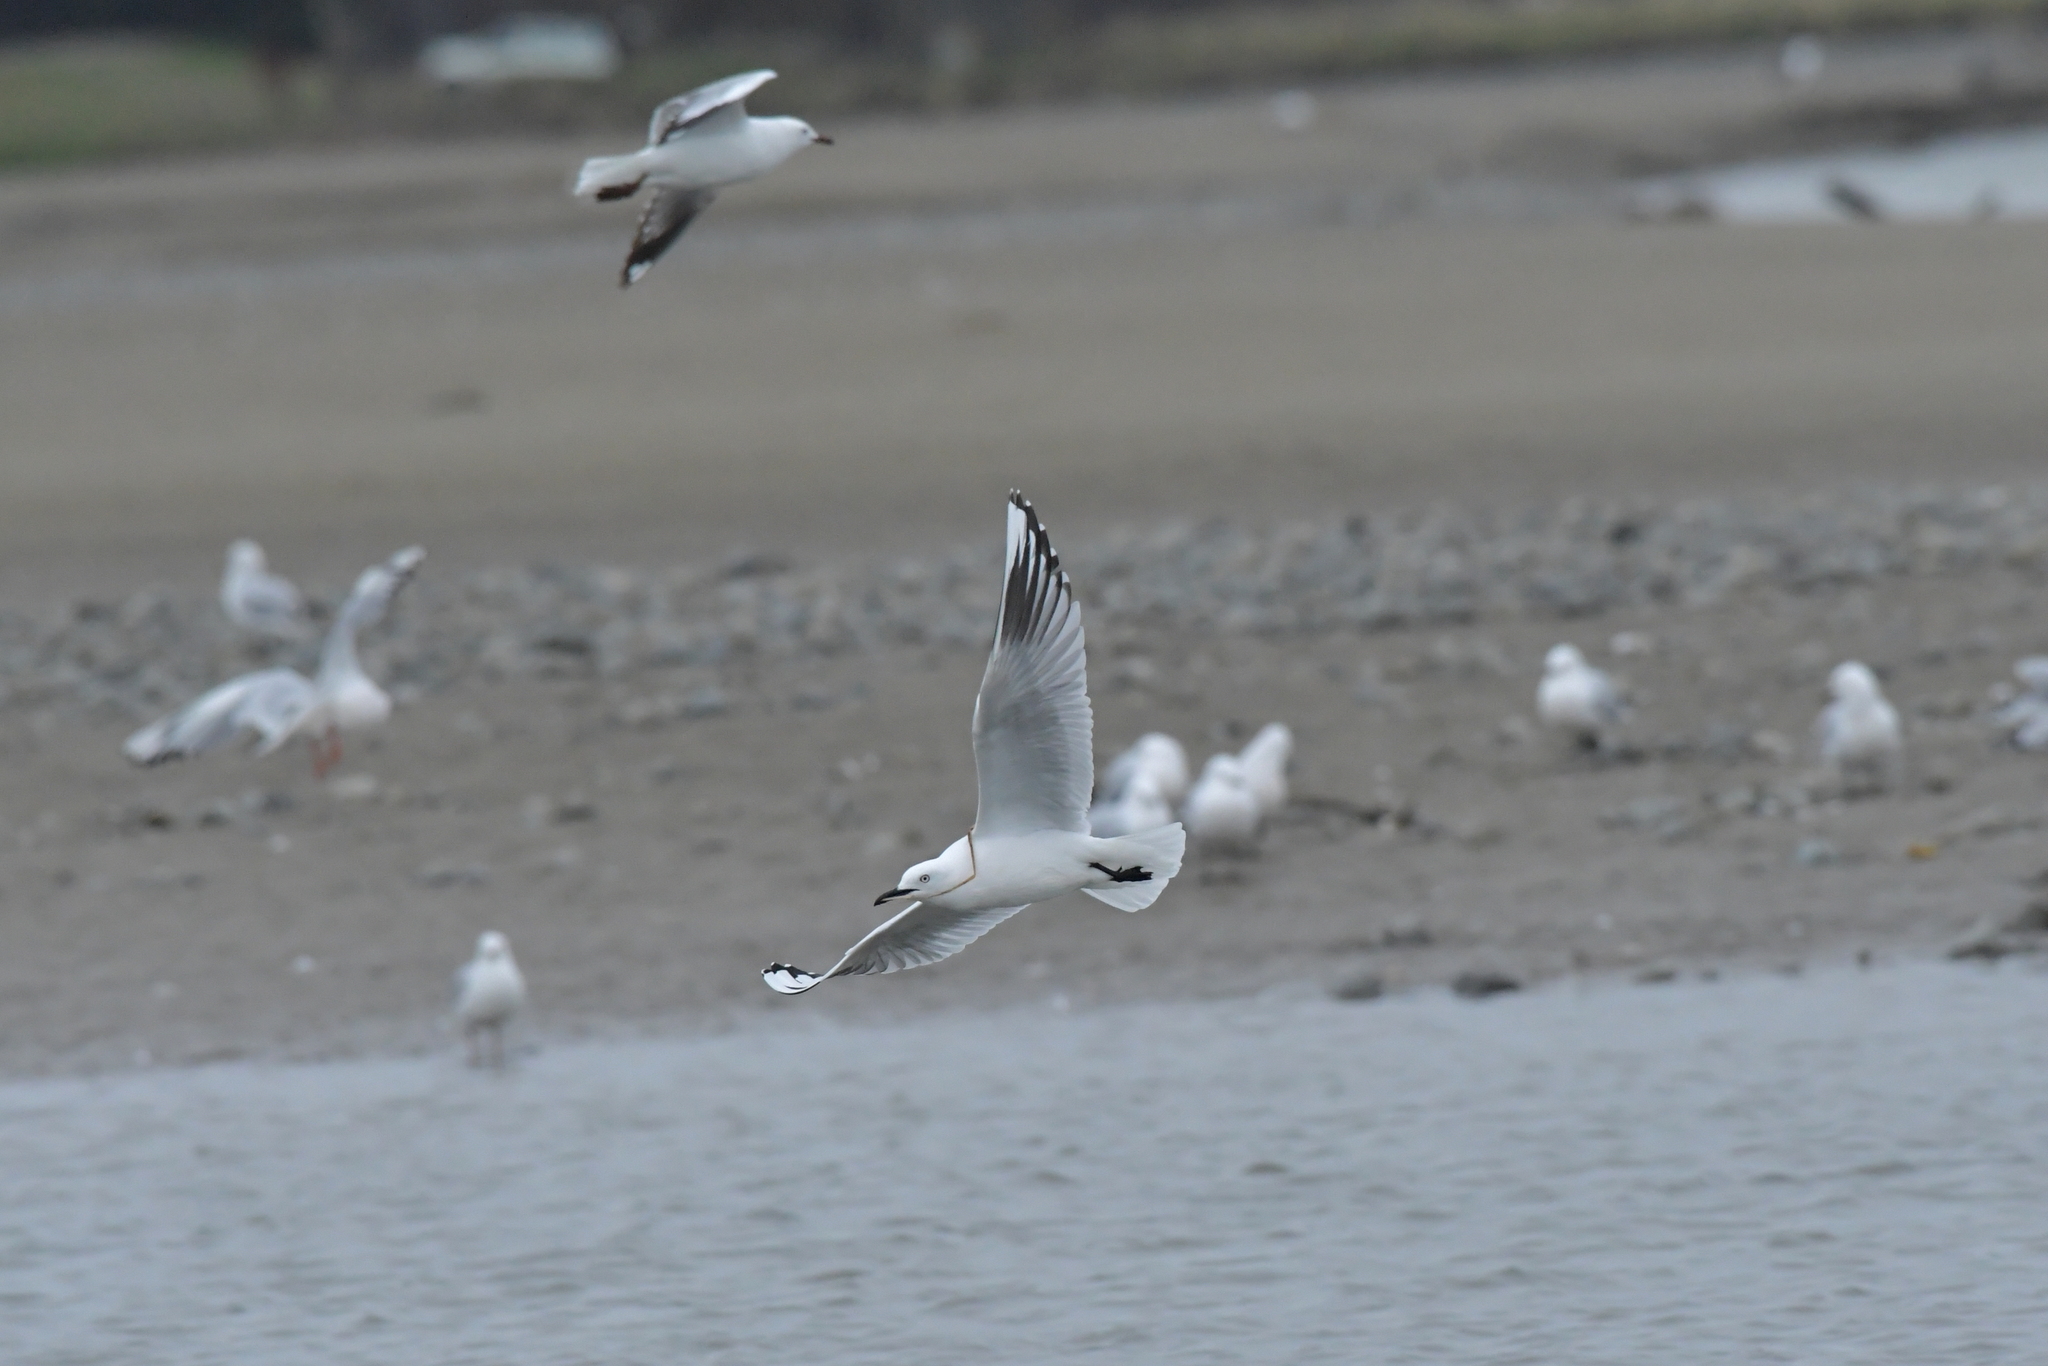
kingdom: Animalia
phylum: Chordata
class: Aves
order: Charadriiformes
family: Laridae
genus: Chroicocephalus
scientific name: Chroicocephalus bulleri
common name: Black-billed gull
